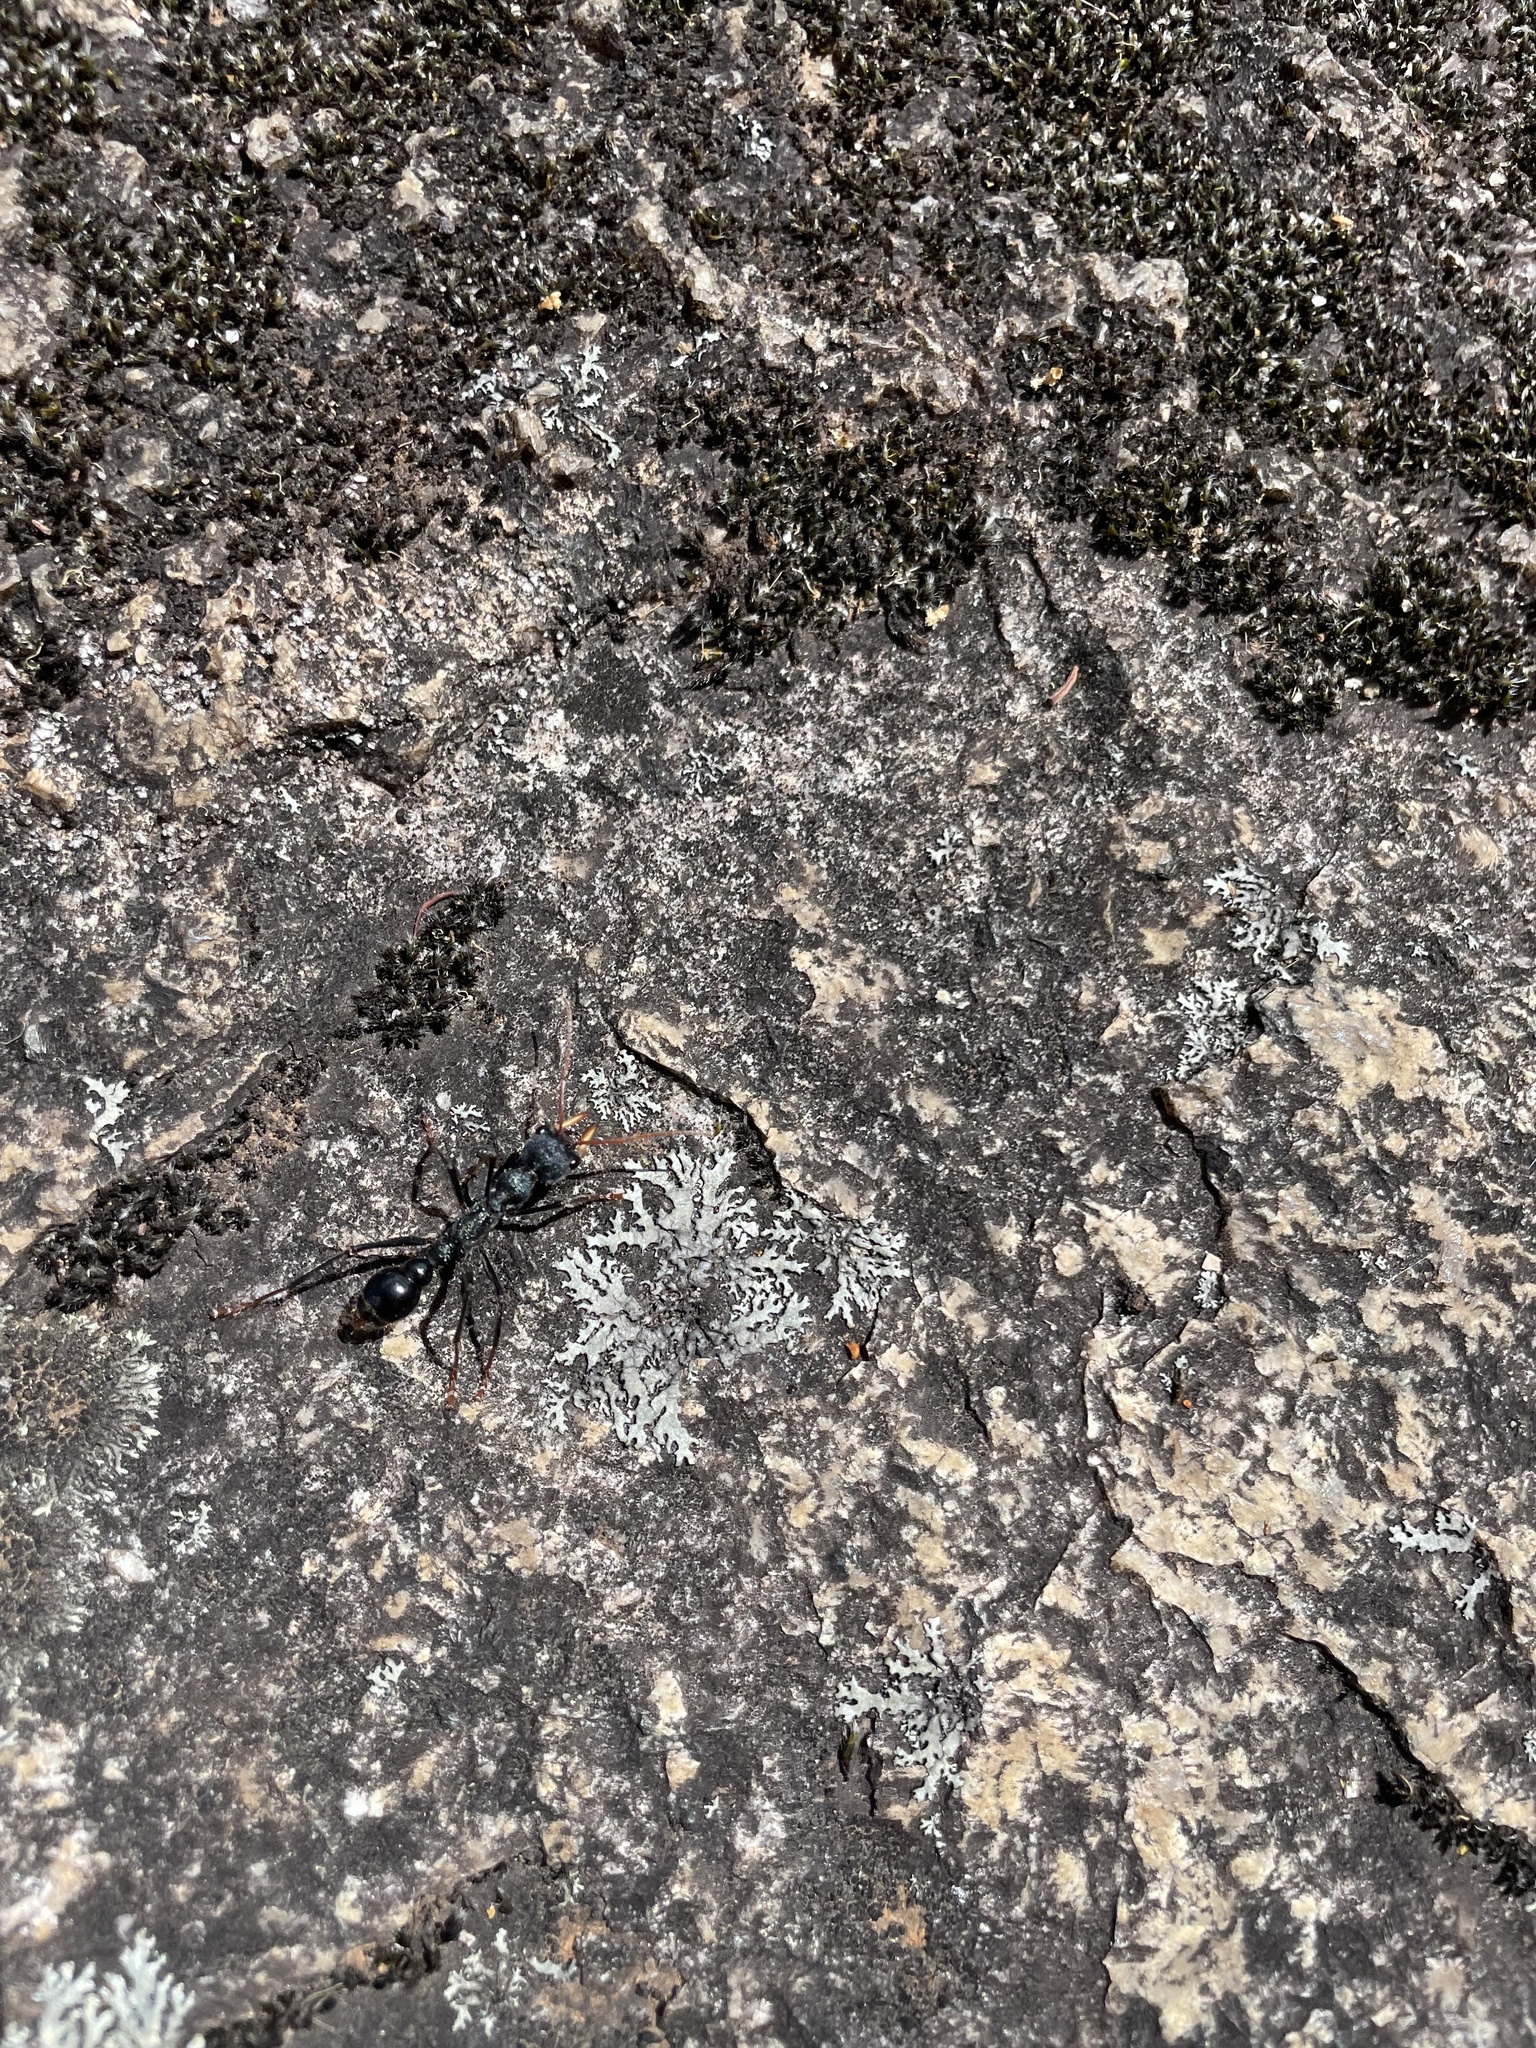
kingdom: Animalia
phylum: Arthropoda
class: Insecta
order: Hymenoptera
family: Formicidae
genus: Myrmecia
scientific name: Myrmecia tarsata
